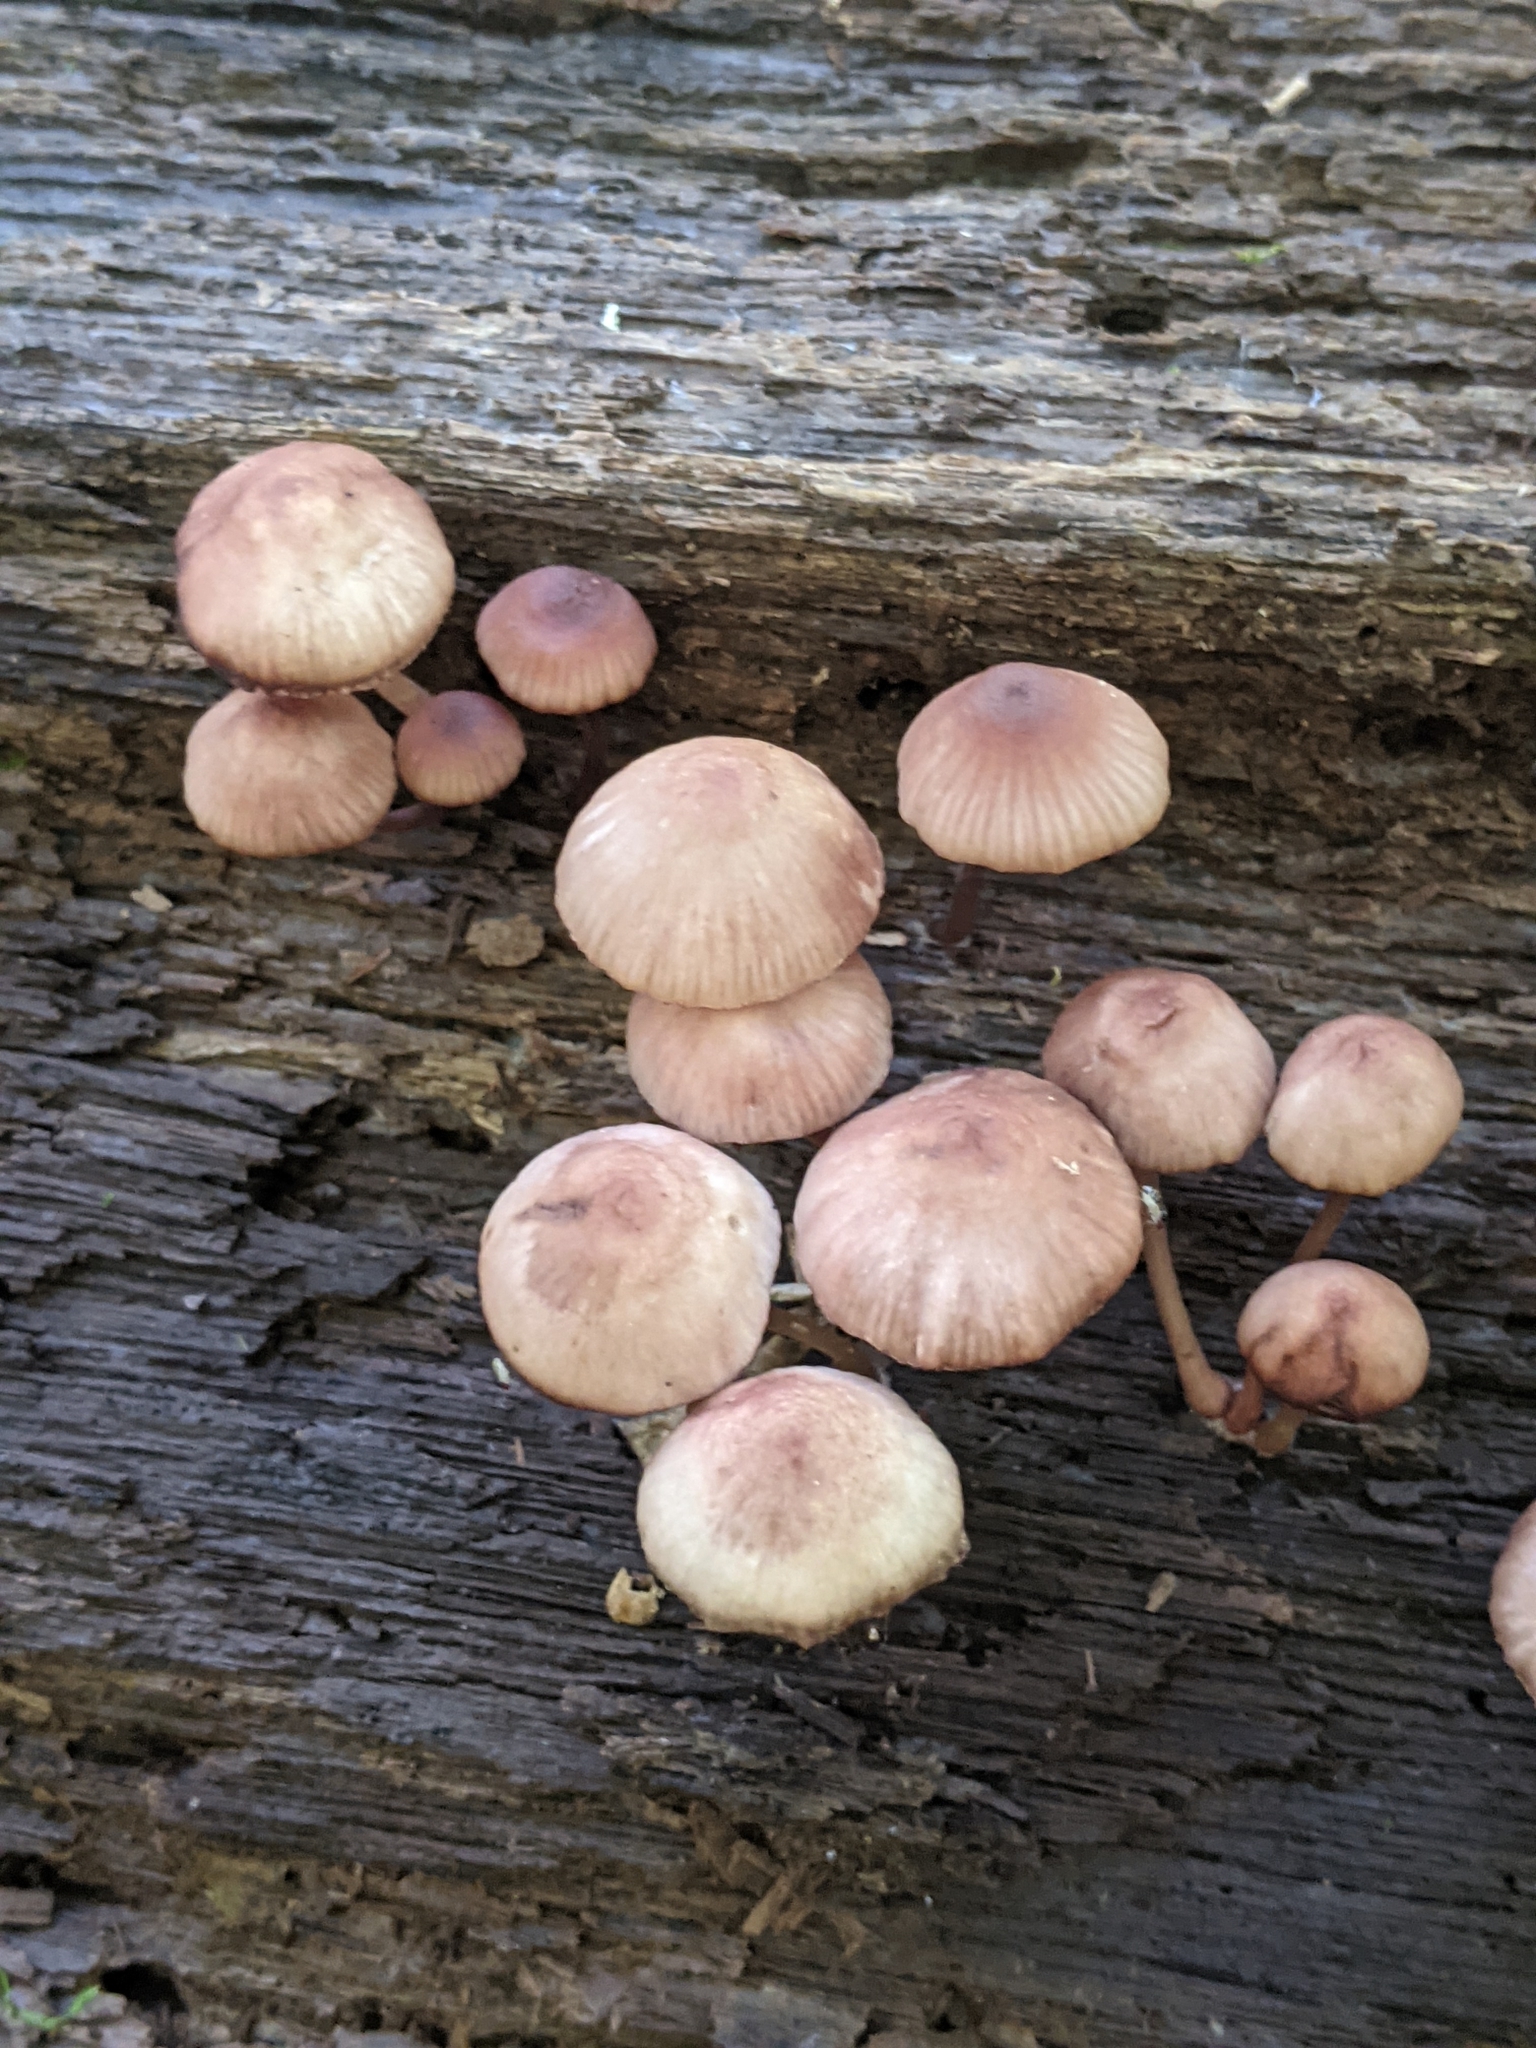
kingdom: Fungi
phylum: Basidiomycota
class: Agaricomycetes
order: Agaricales
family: Mycenaceae
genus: Mycena
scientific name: Mycena haematopus
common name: Burgundydrop bonnet
